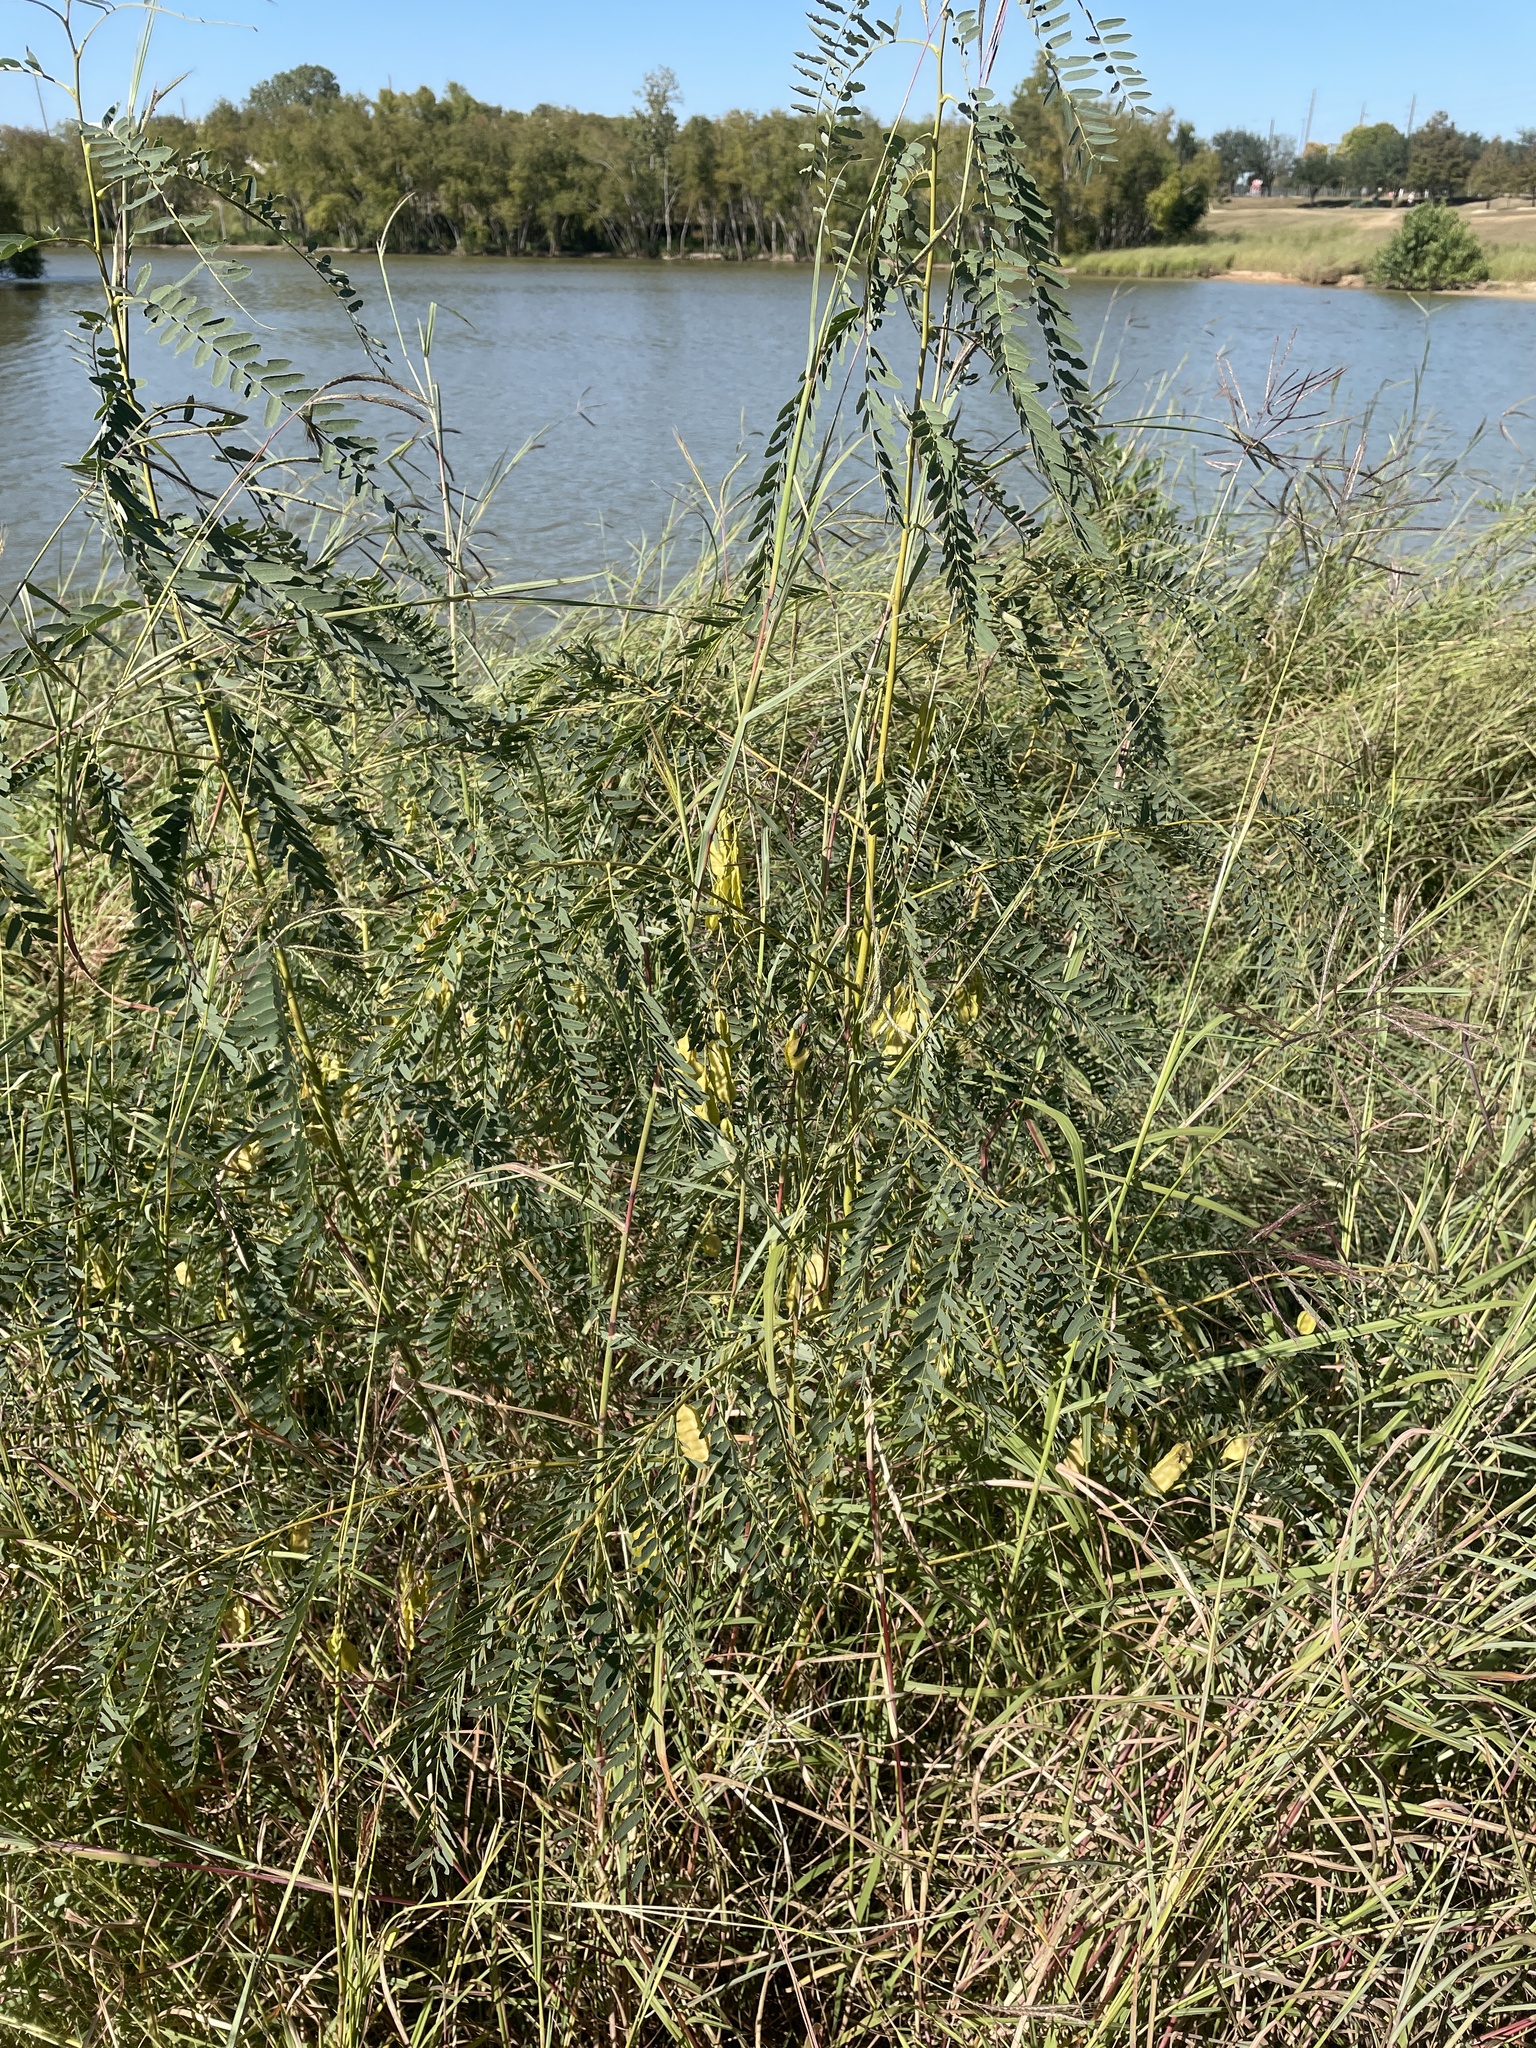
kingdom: Plantae
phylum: Tracheophyta
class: Magnoliopsida
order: Fabales
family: Fabaceae
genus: Sesbania
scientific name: Sesbania drummondii
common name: Poison-bean
